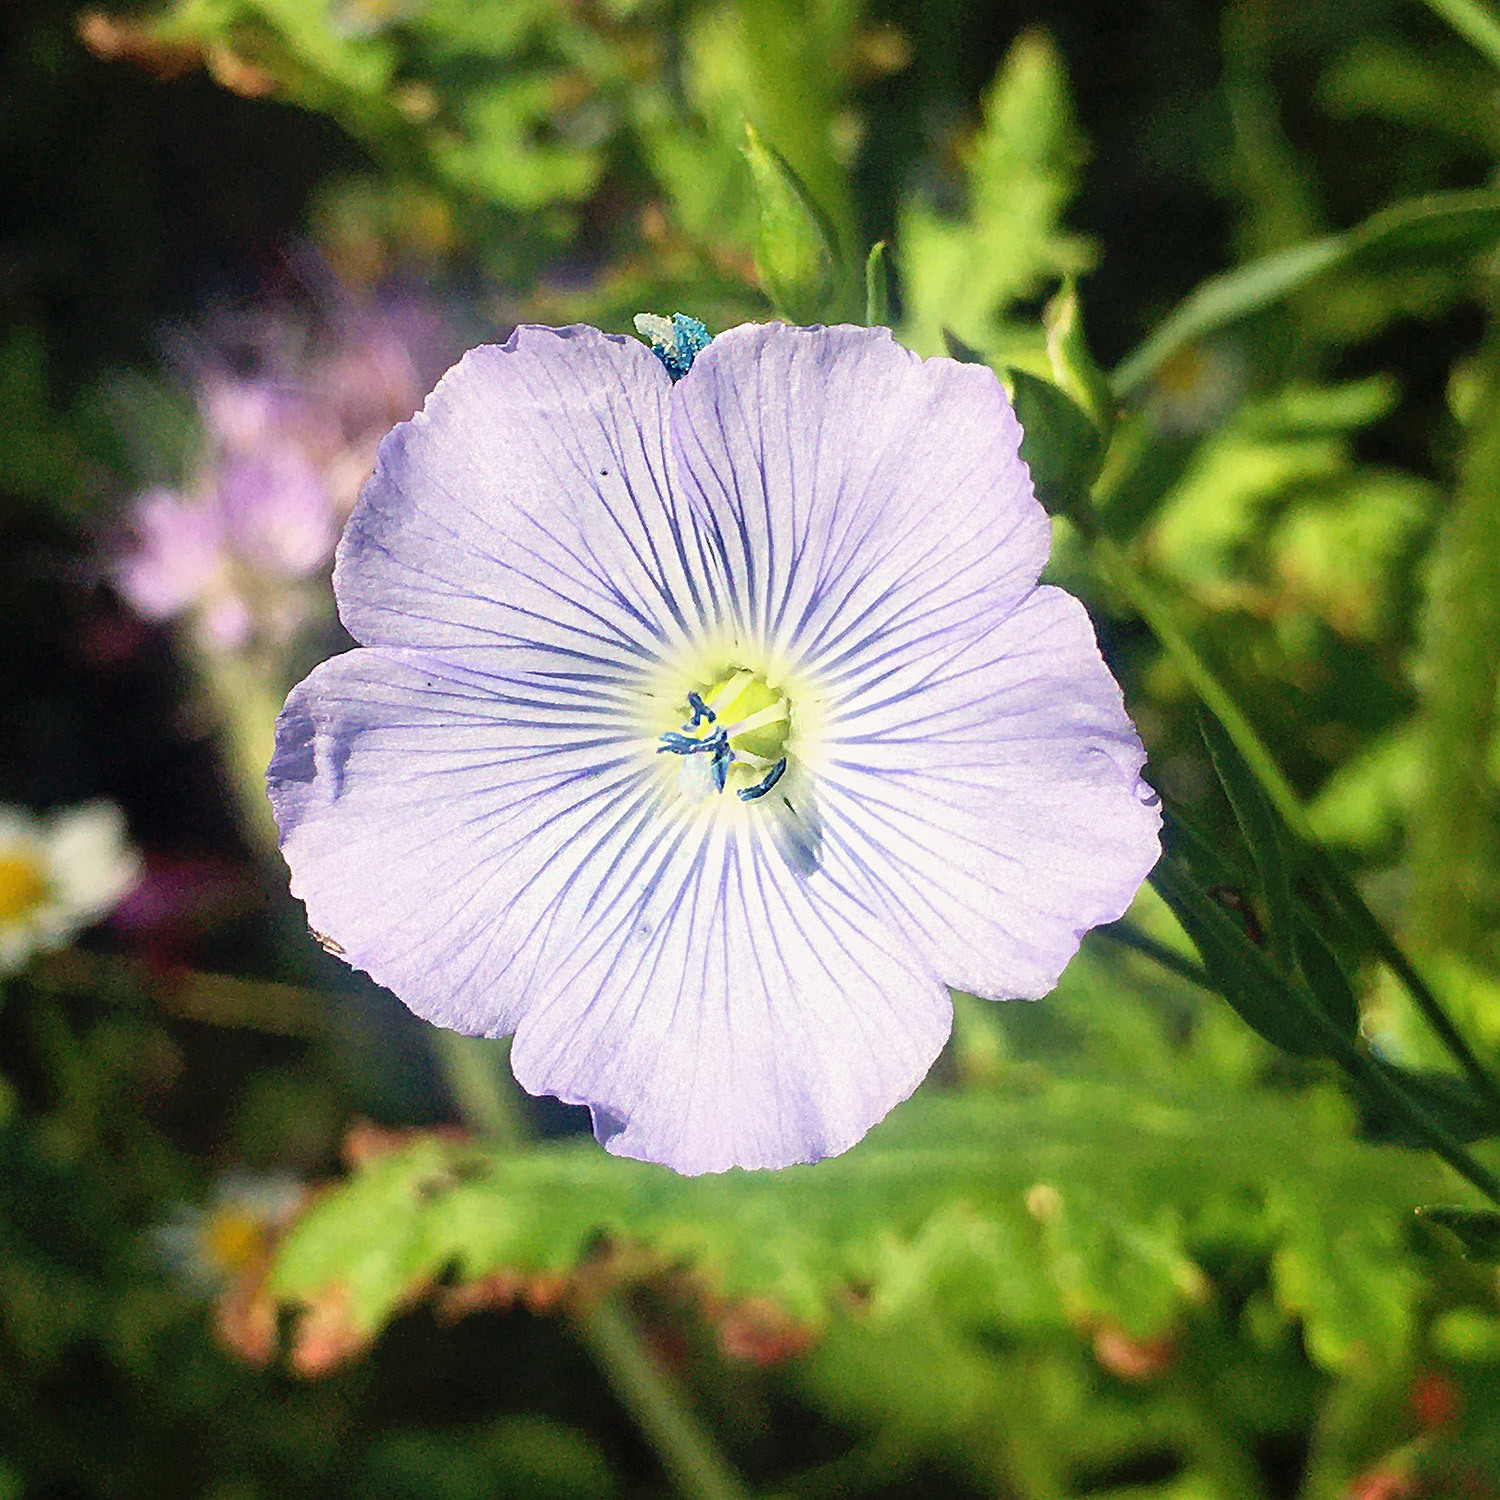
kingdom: Plantae
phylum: Tracheophyta
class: Magnoliopsida
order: Malpighiales
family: Linaceae
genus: Linum
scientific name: Linum usitatissimum
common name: Flax
